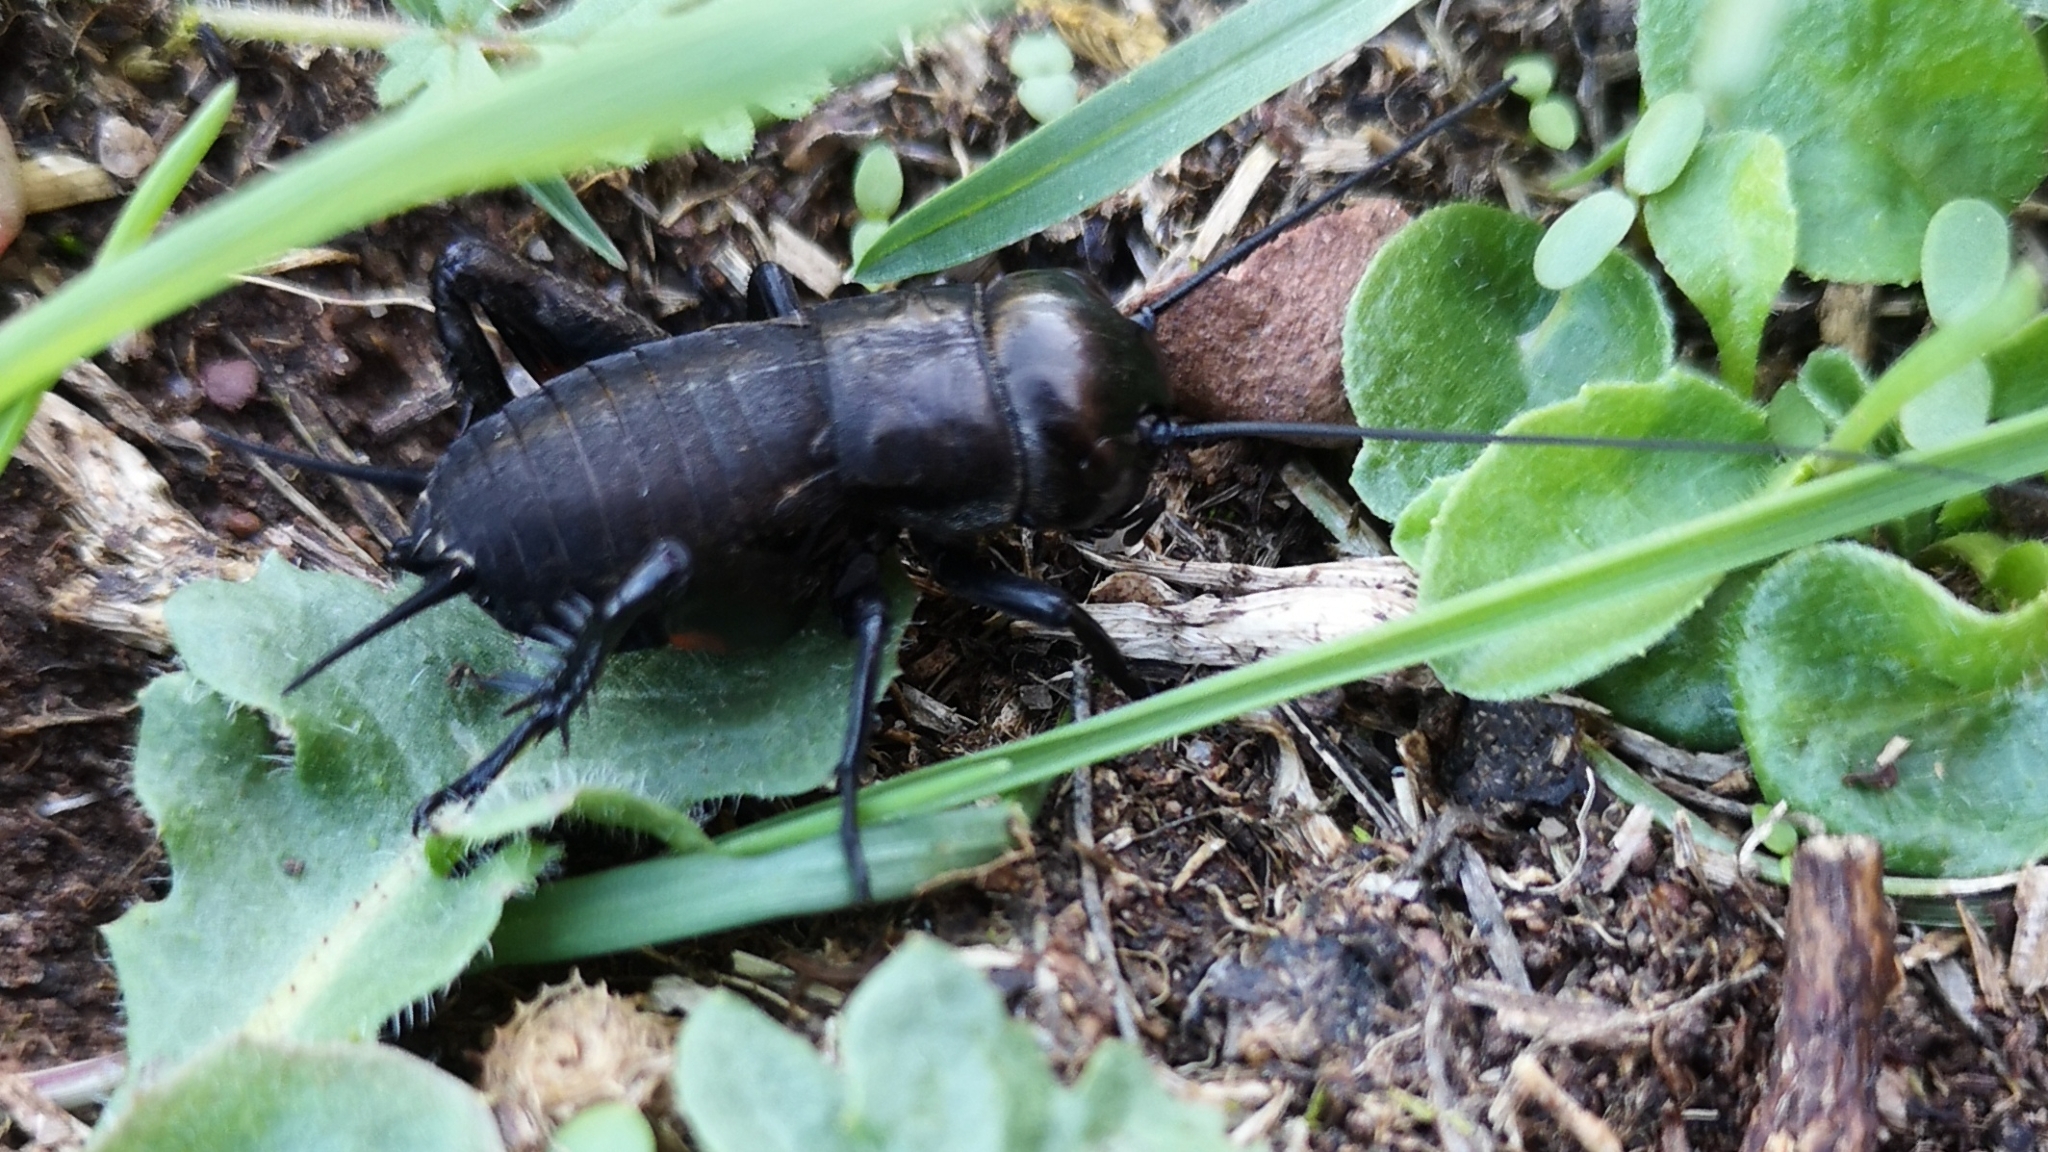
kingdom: Animalia
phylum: Arthropoda
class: Insecta
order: Orthoptera
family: Gryllidae
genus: Gryllus
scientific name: Gryllus campestris
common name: Field cricket
